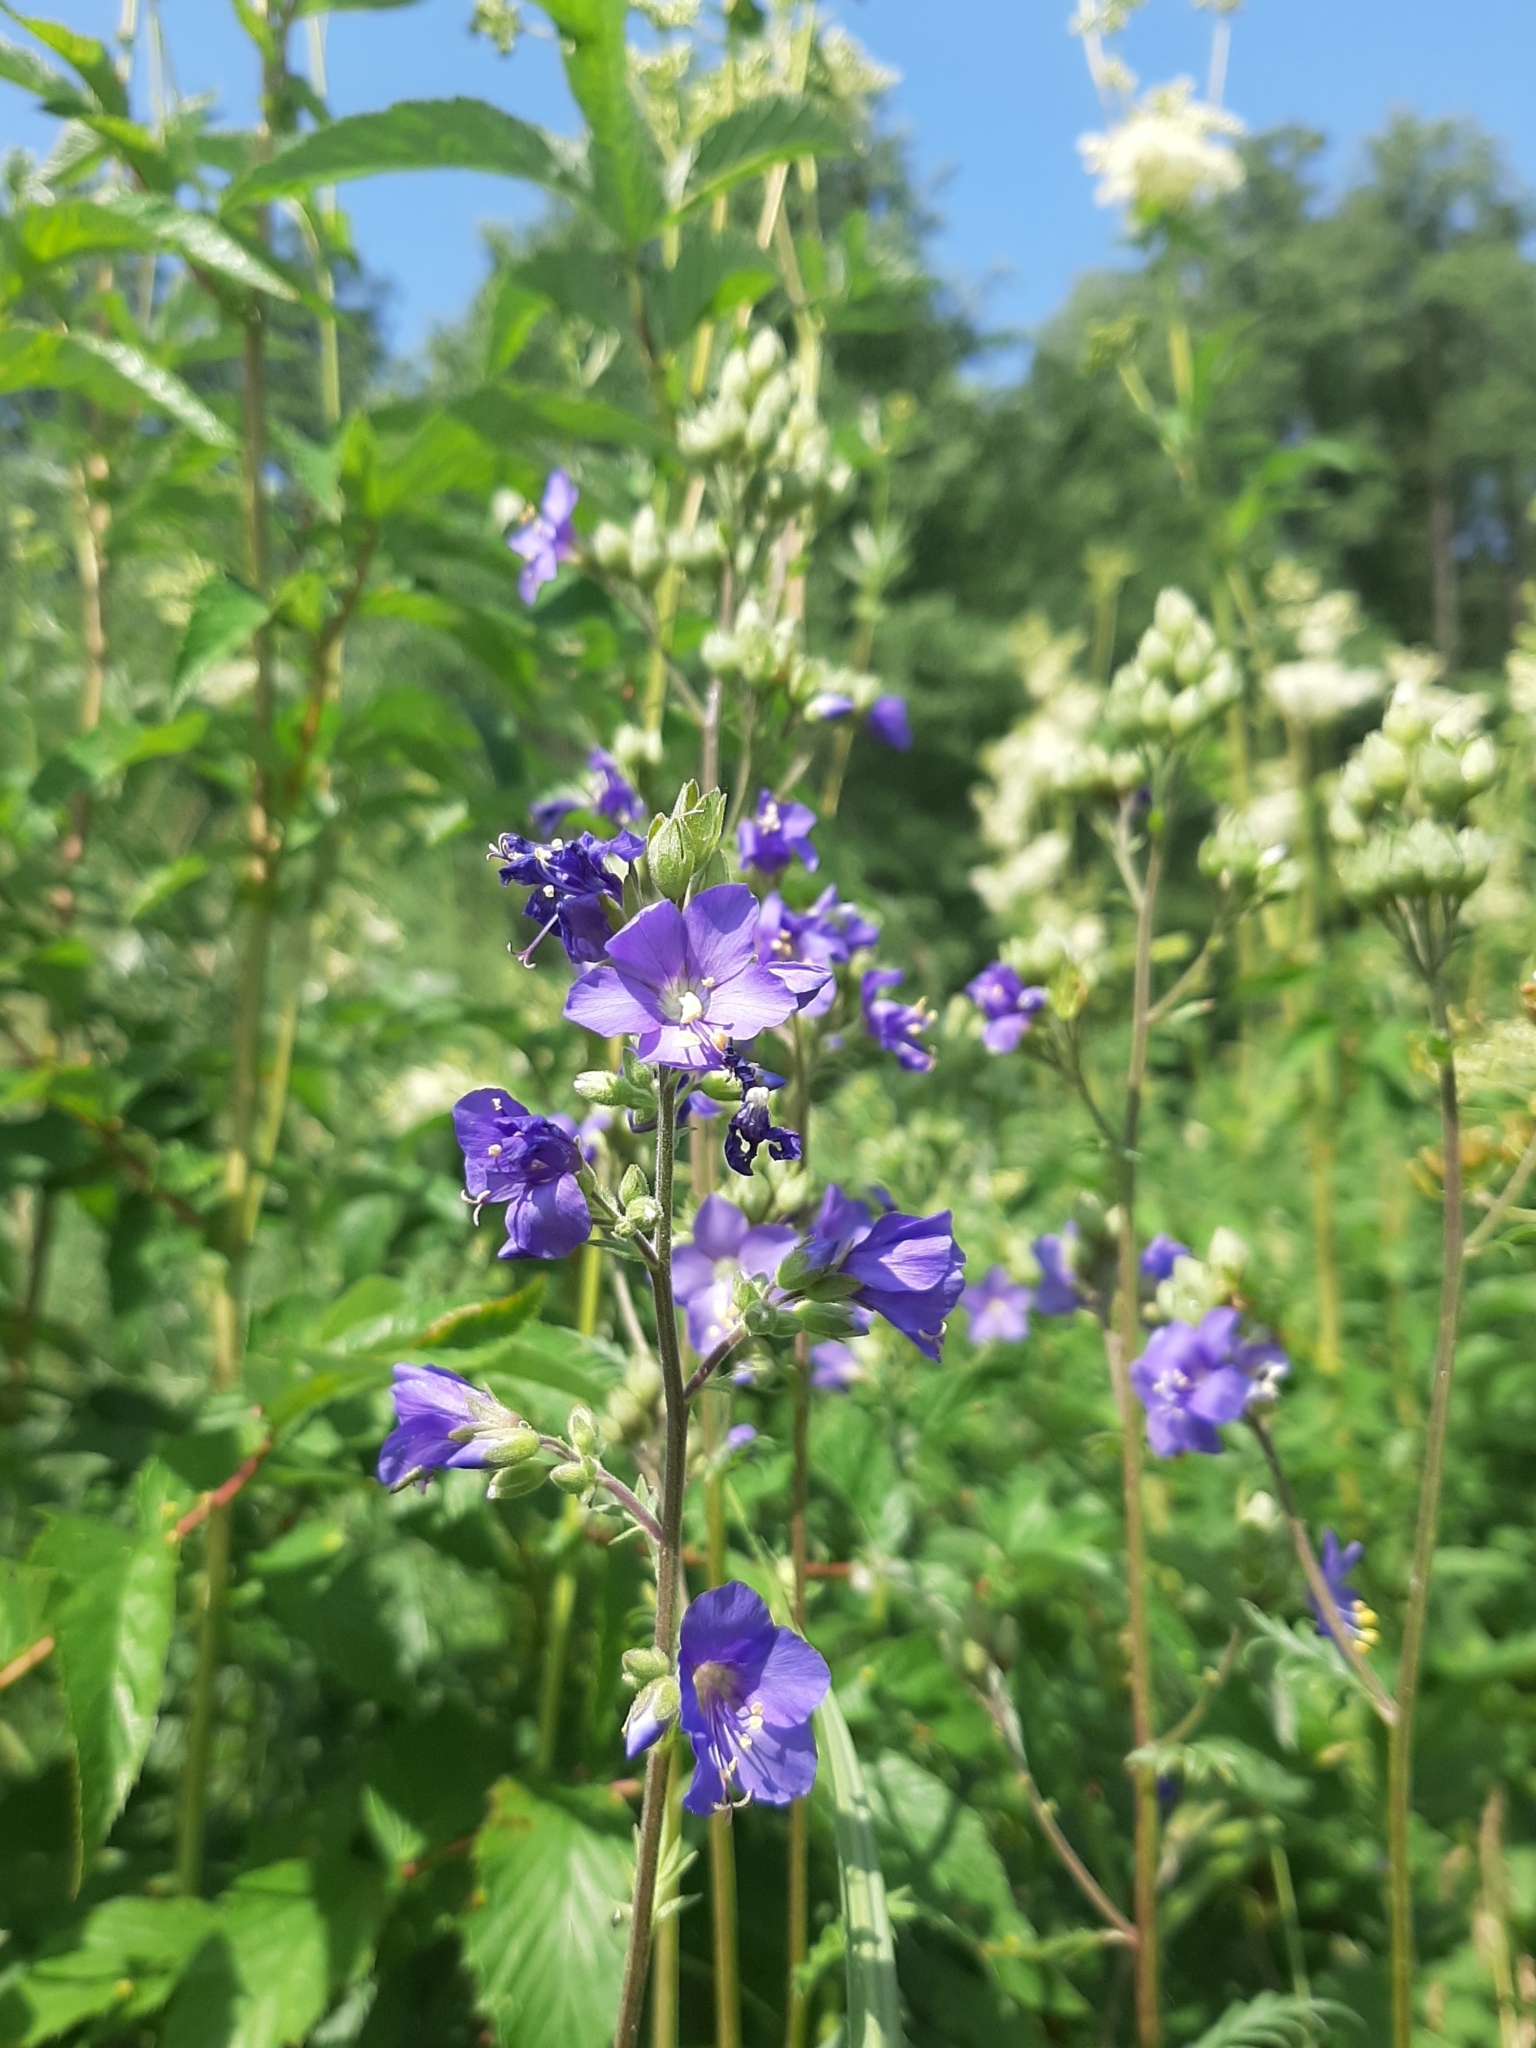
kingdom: Plantae
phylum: Tracheophyta
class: Magnoliopsida
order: Ericales
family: Polemoniaceae
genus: Polemonium
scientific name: Polemonium caeruleum
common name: Jacob's-ladder
